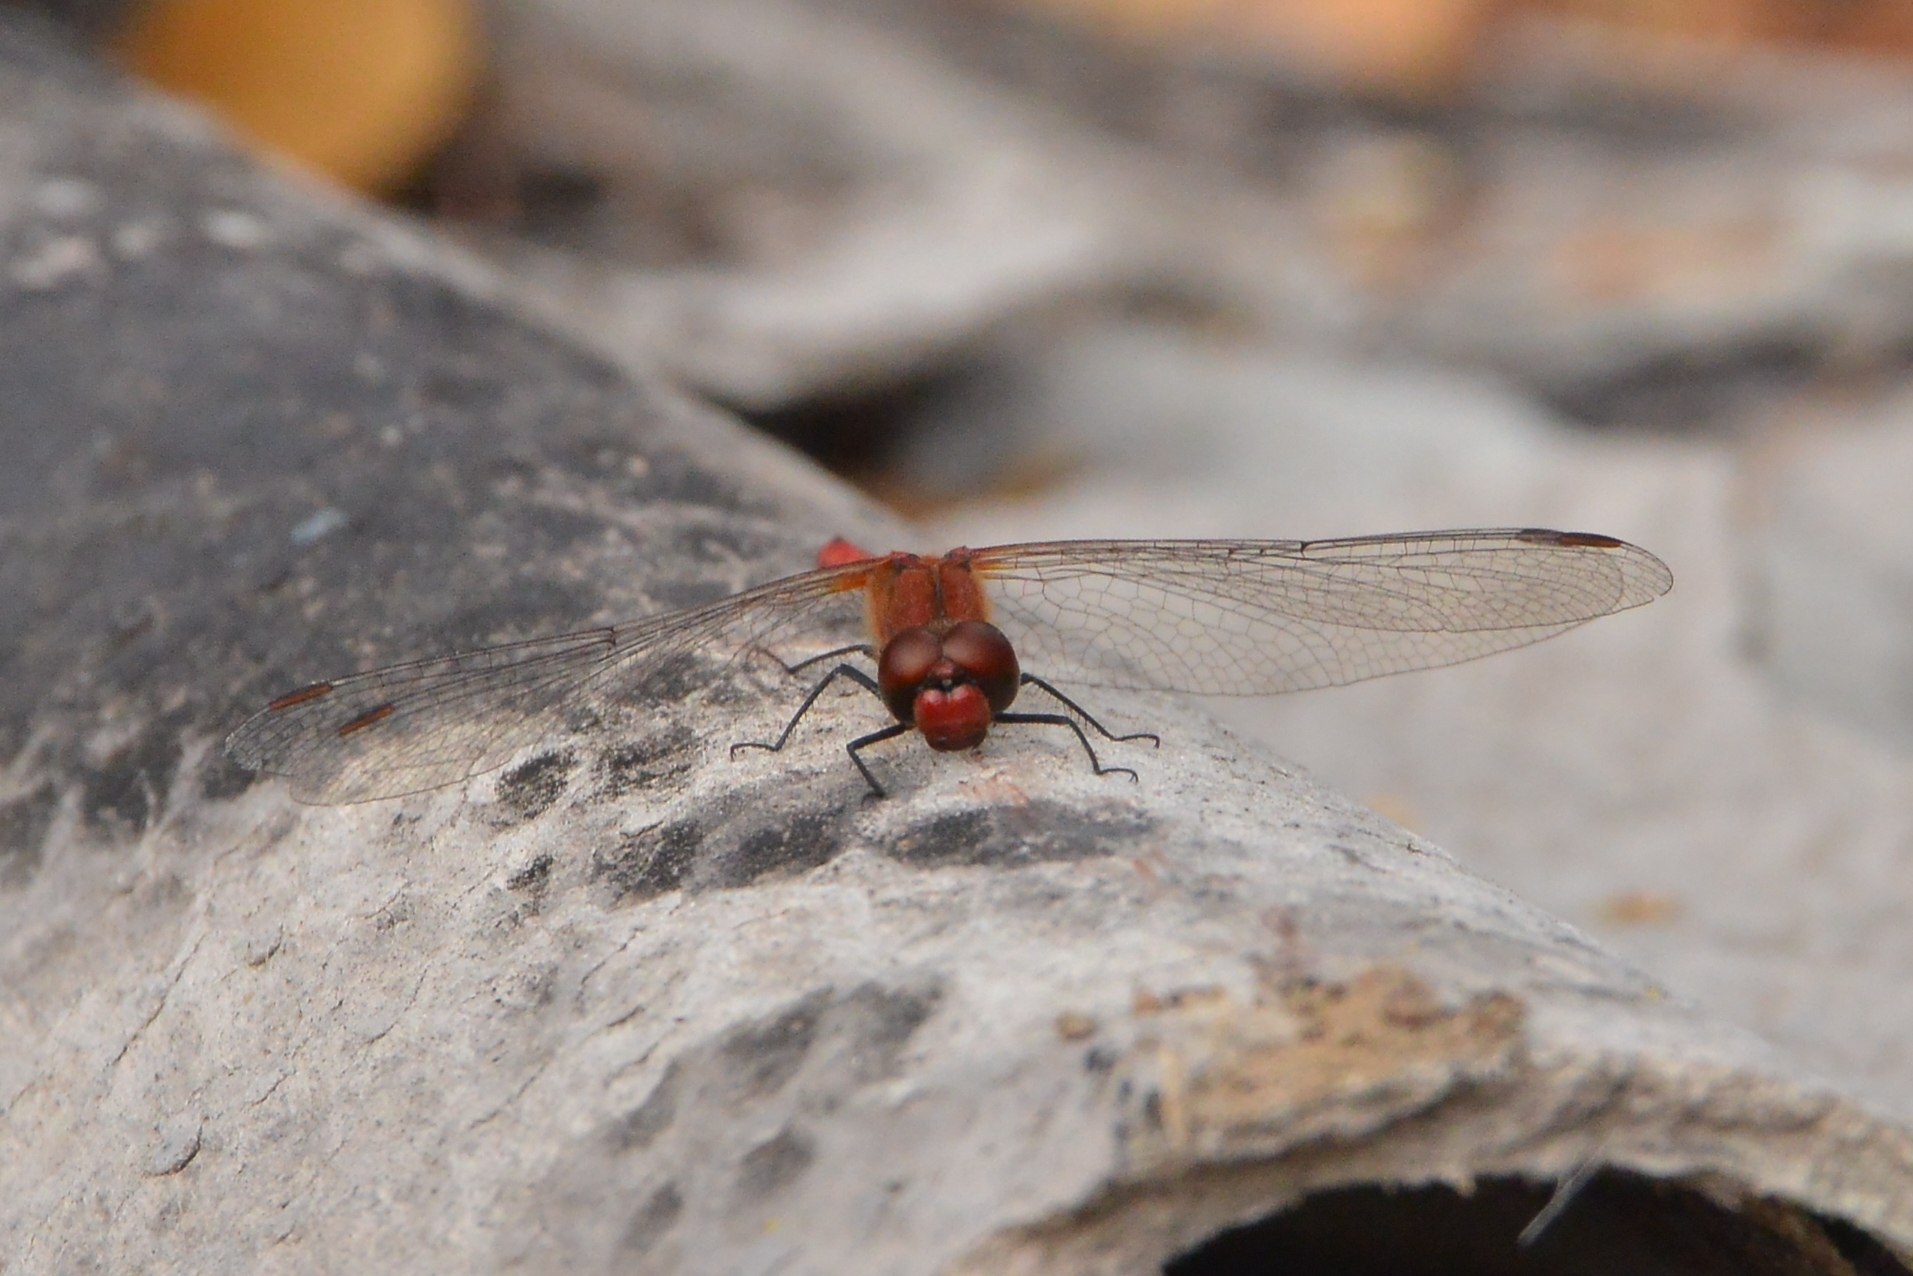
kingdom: Animalia
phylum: Arthropoda
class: Insecta
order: Odonata
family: Libellulidae
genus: Sympetrum
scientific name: Sympetrum sanguineum
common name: Ruddy darter
